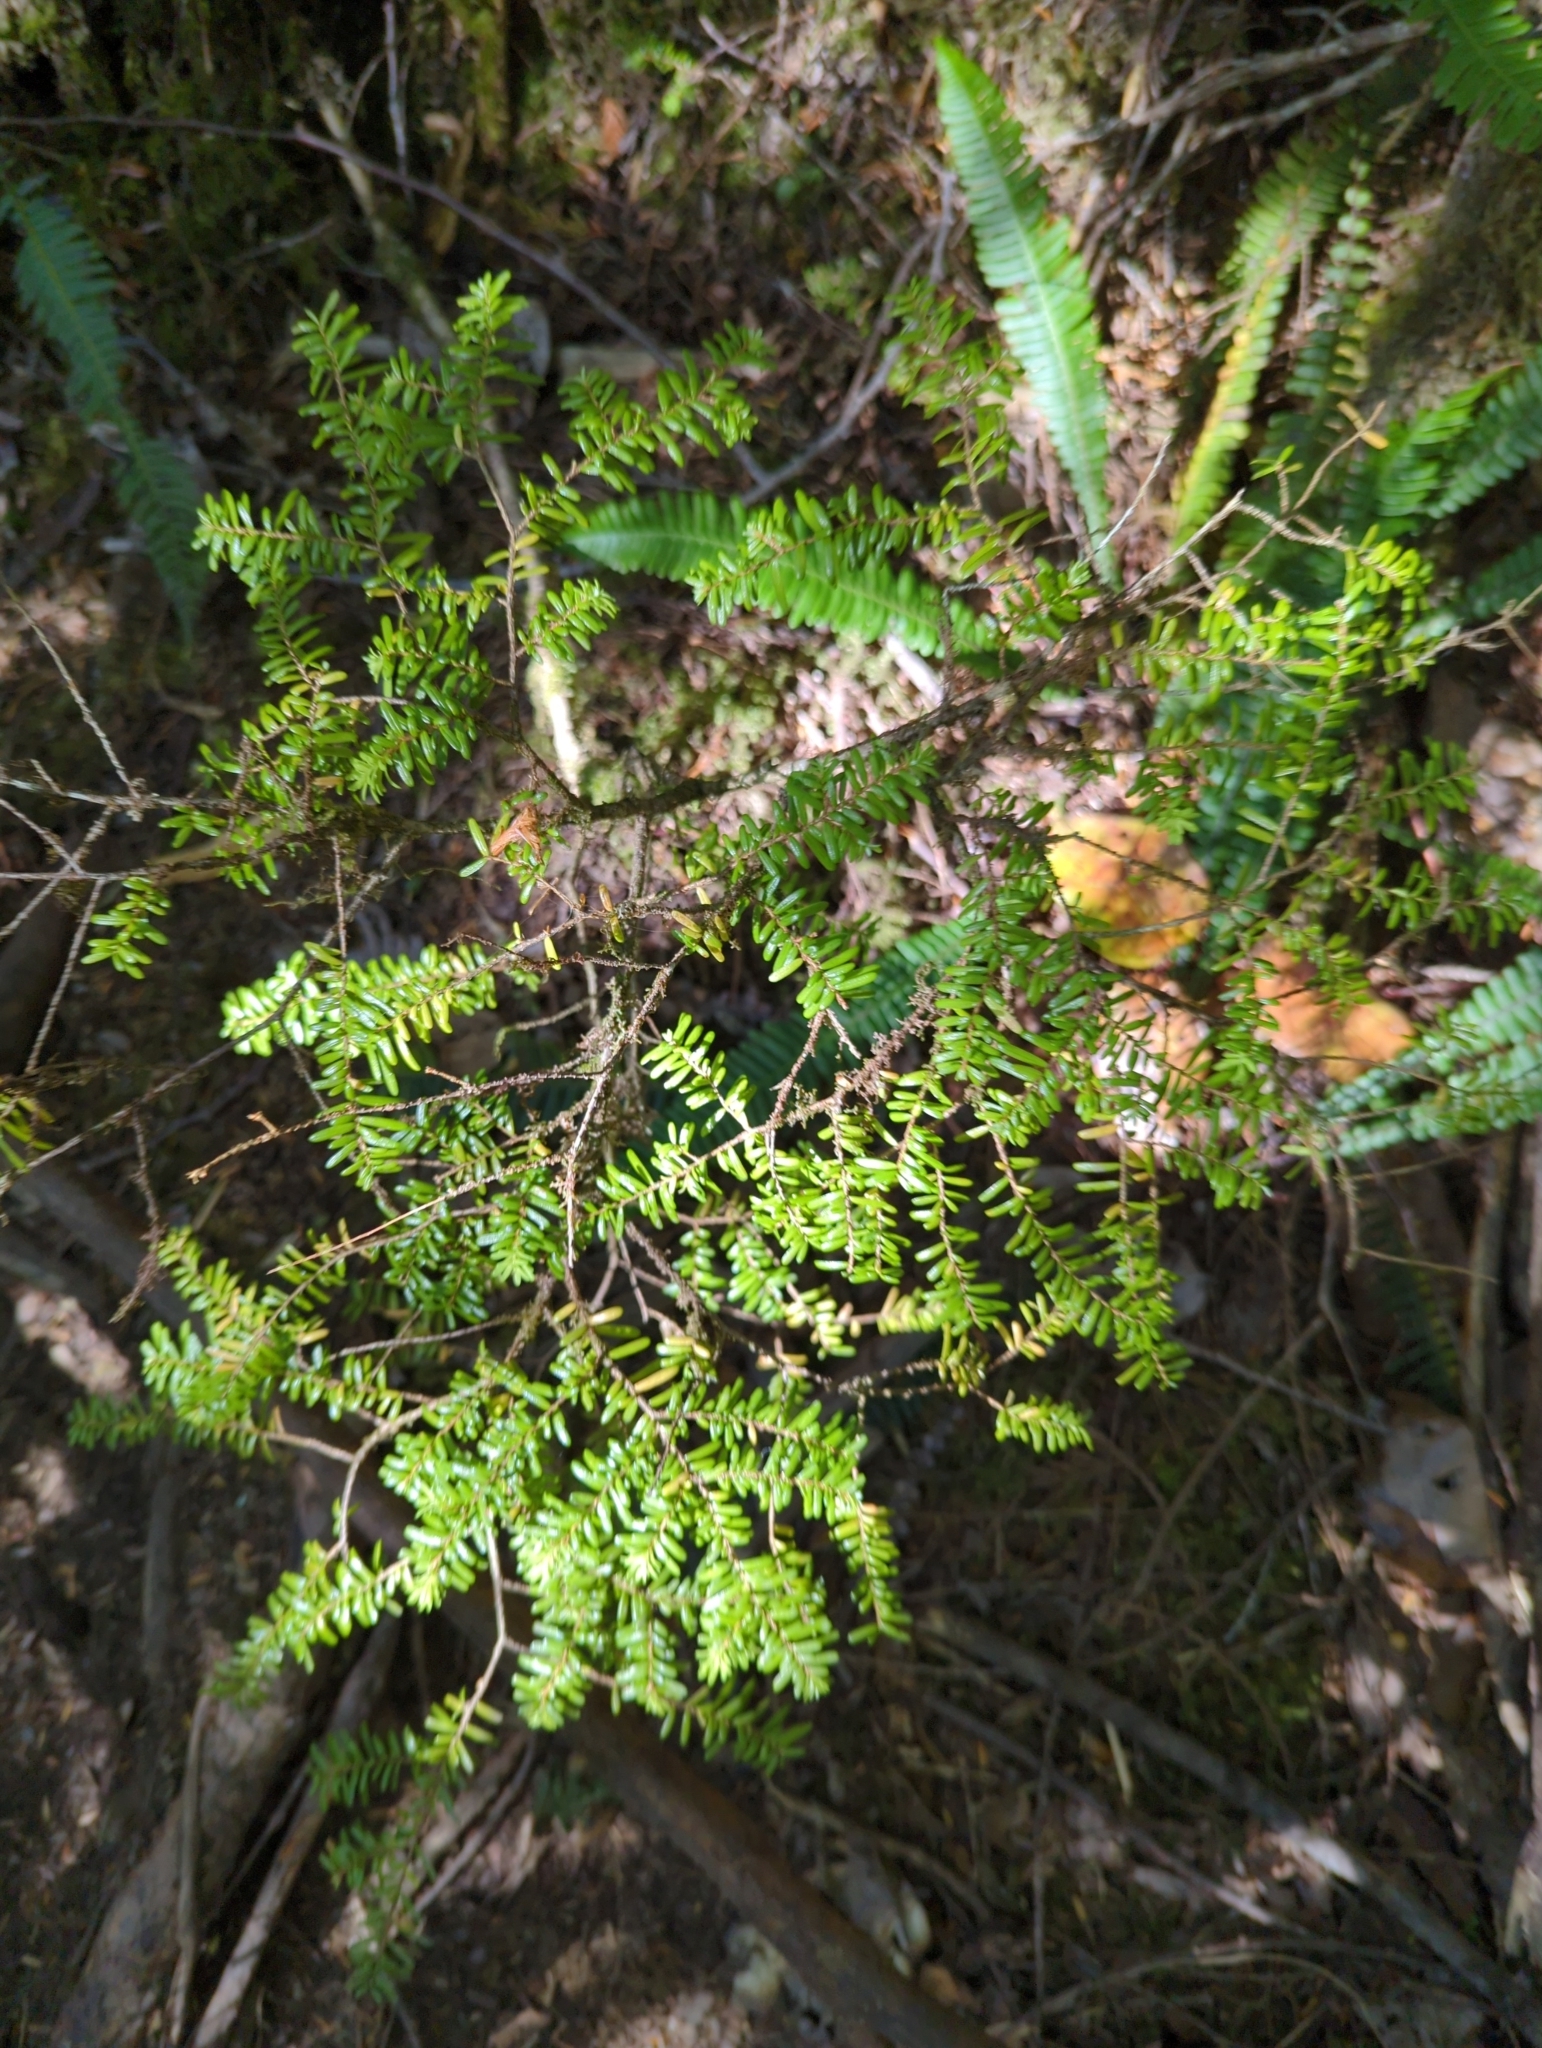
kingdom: Plantae
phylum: Tracheophyta
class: Pinopsida
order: Pinales
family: Pinaceae
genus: Tsuga
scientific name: Tsuga heterophylla
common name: Western hemlock
